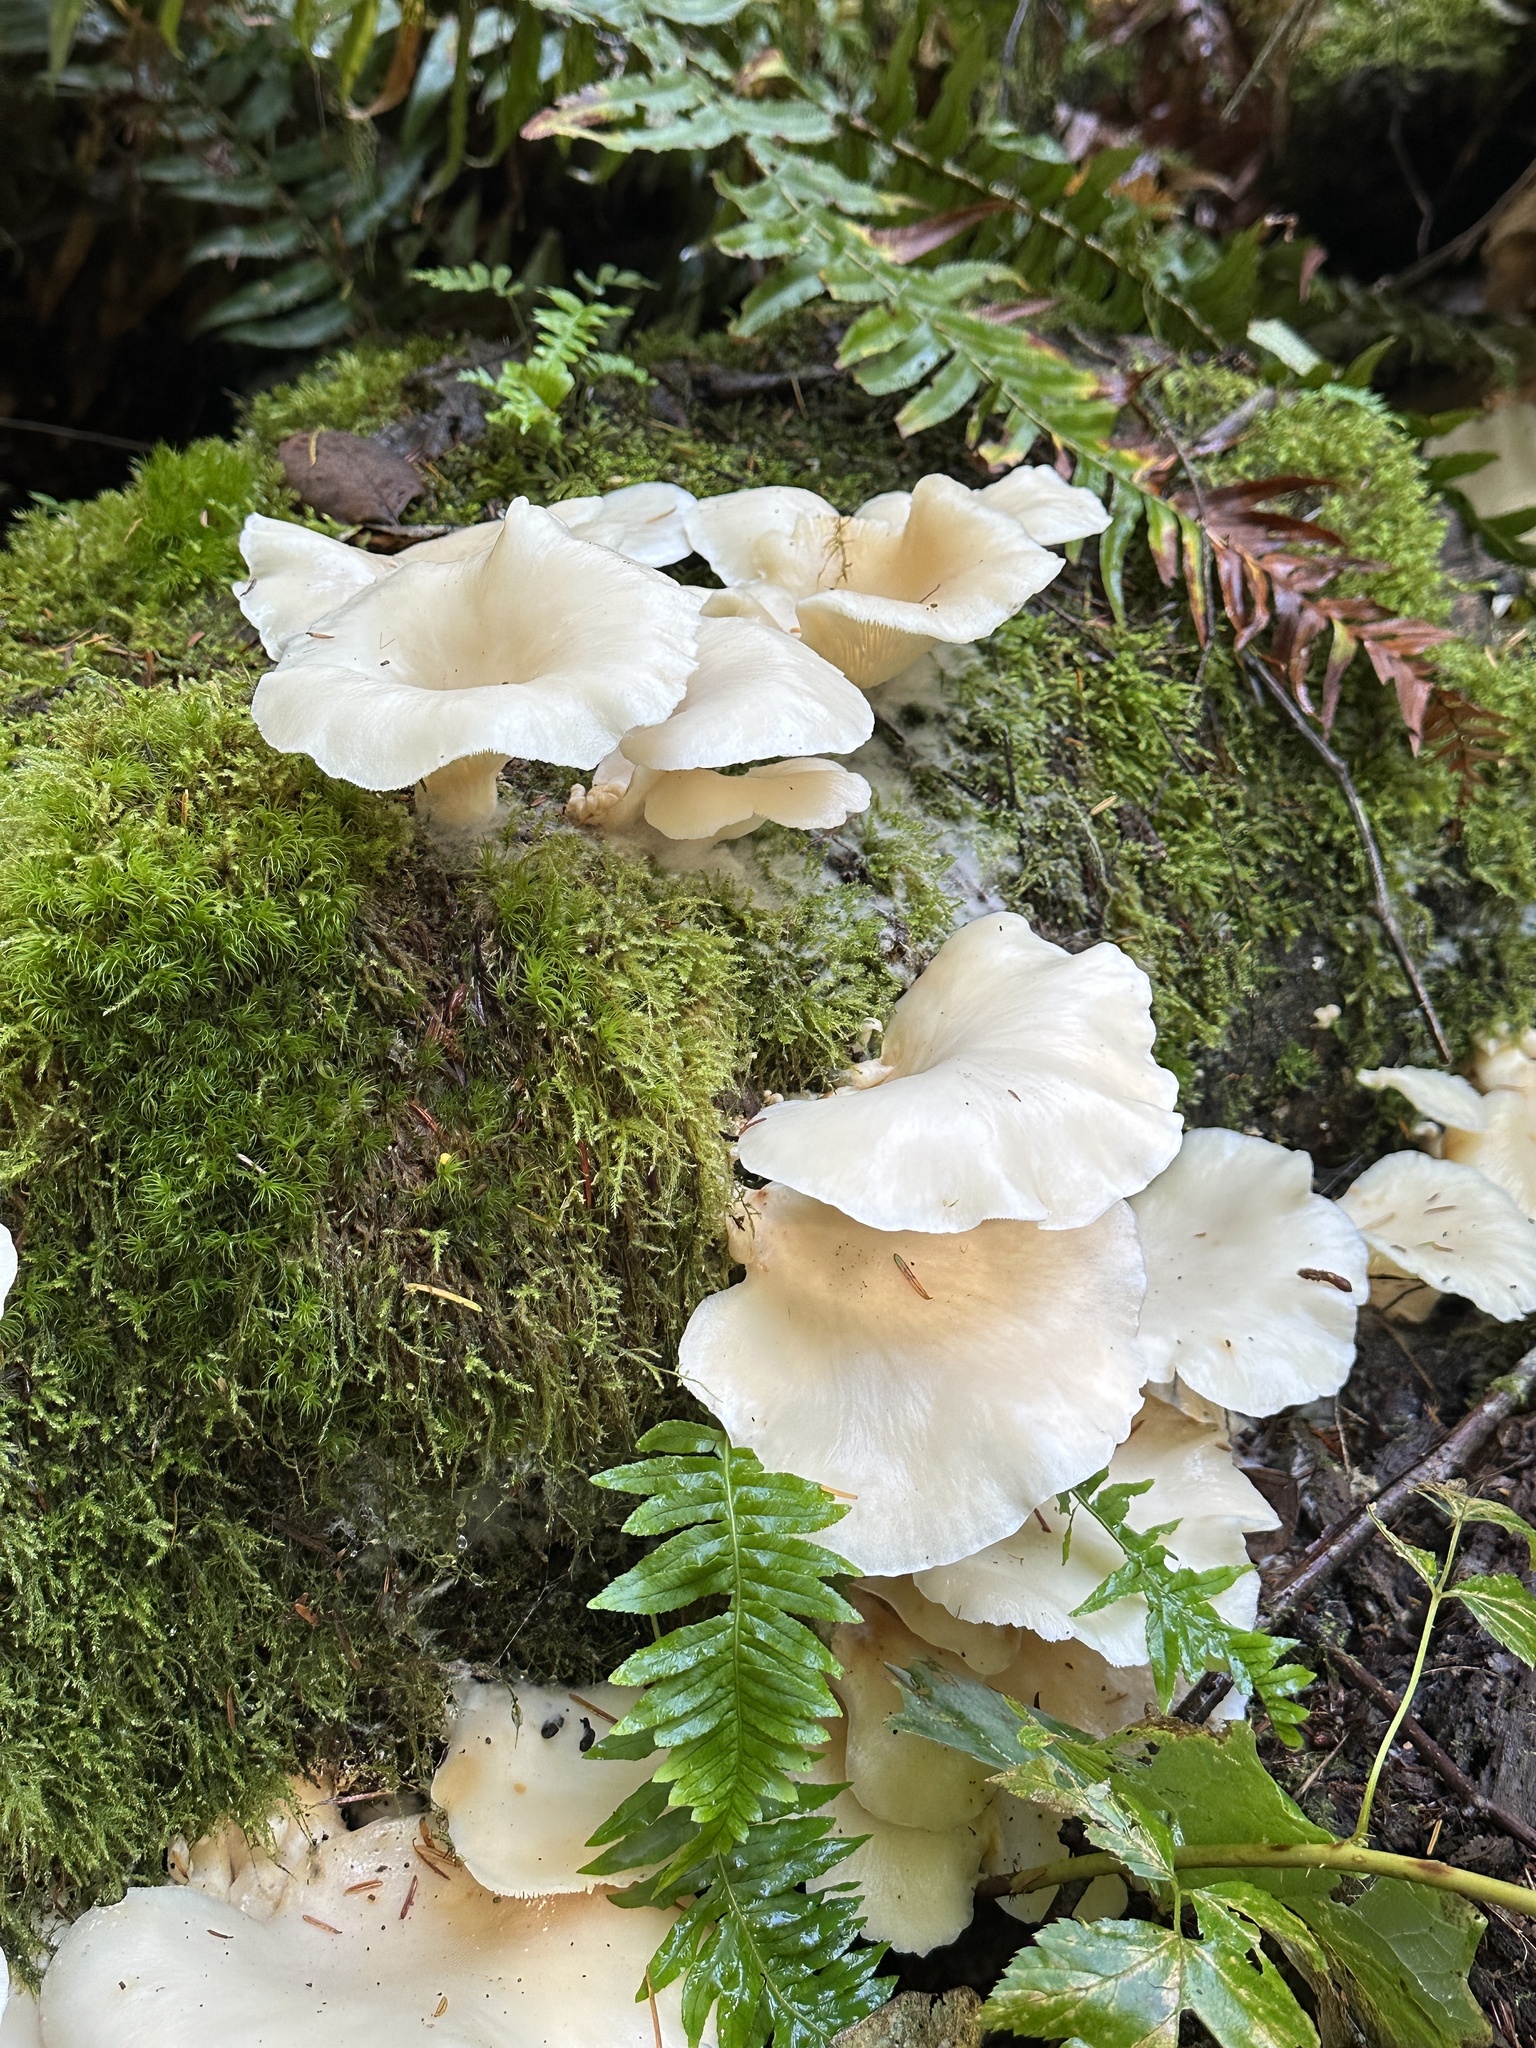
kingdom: Fungi
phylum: Basidiomycota
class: Agaricomycetes
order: Agaricales
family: Pleurotaceae
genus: Pleurotus
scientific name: Pleurotus pulmonarius
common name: Pale oyster
